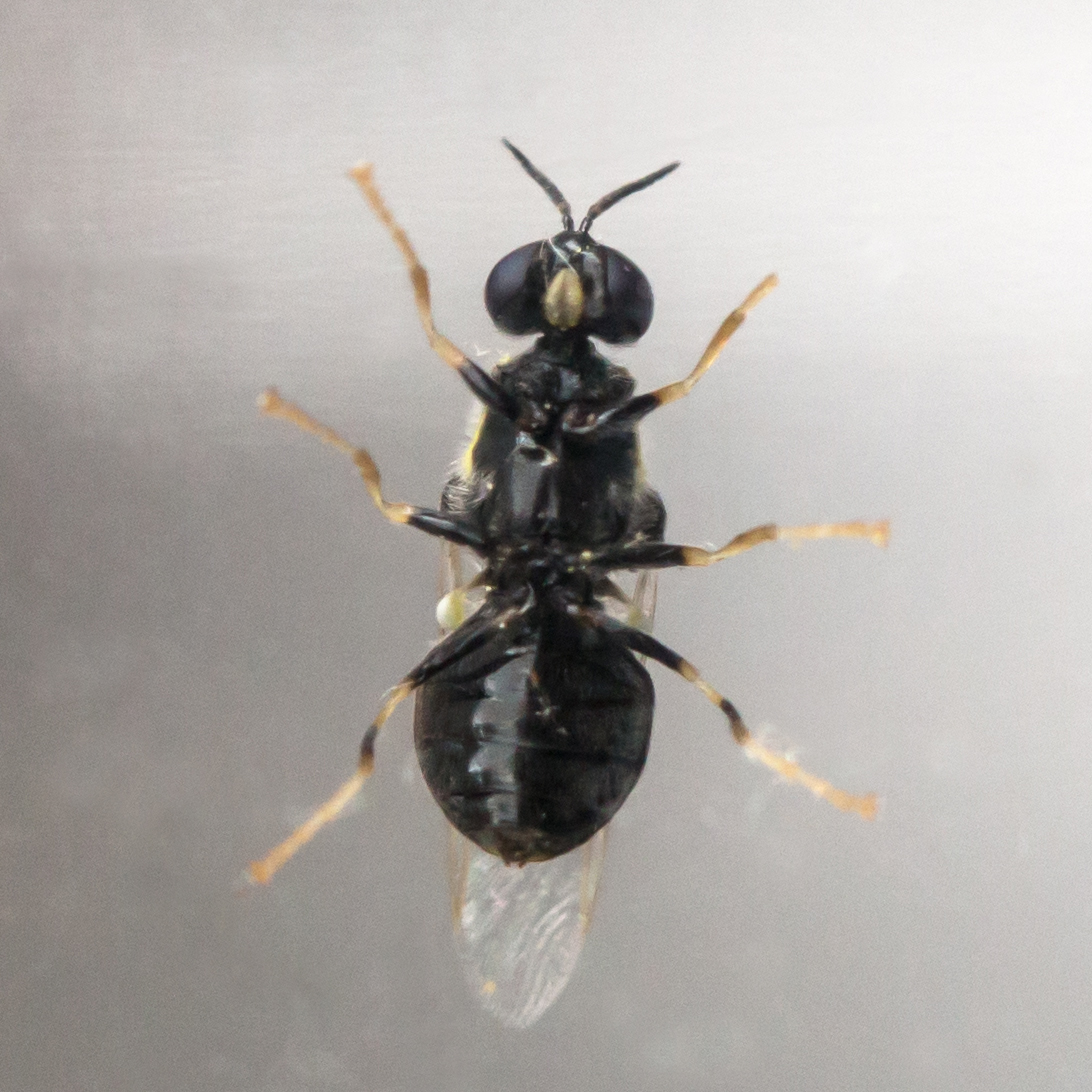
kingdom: Animalia
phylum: Arthropoda
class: Insecta
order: Diptera
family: Stratiomyidae
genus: Caloparyphus
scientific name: Caloparyphus tetraspilus
